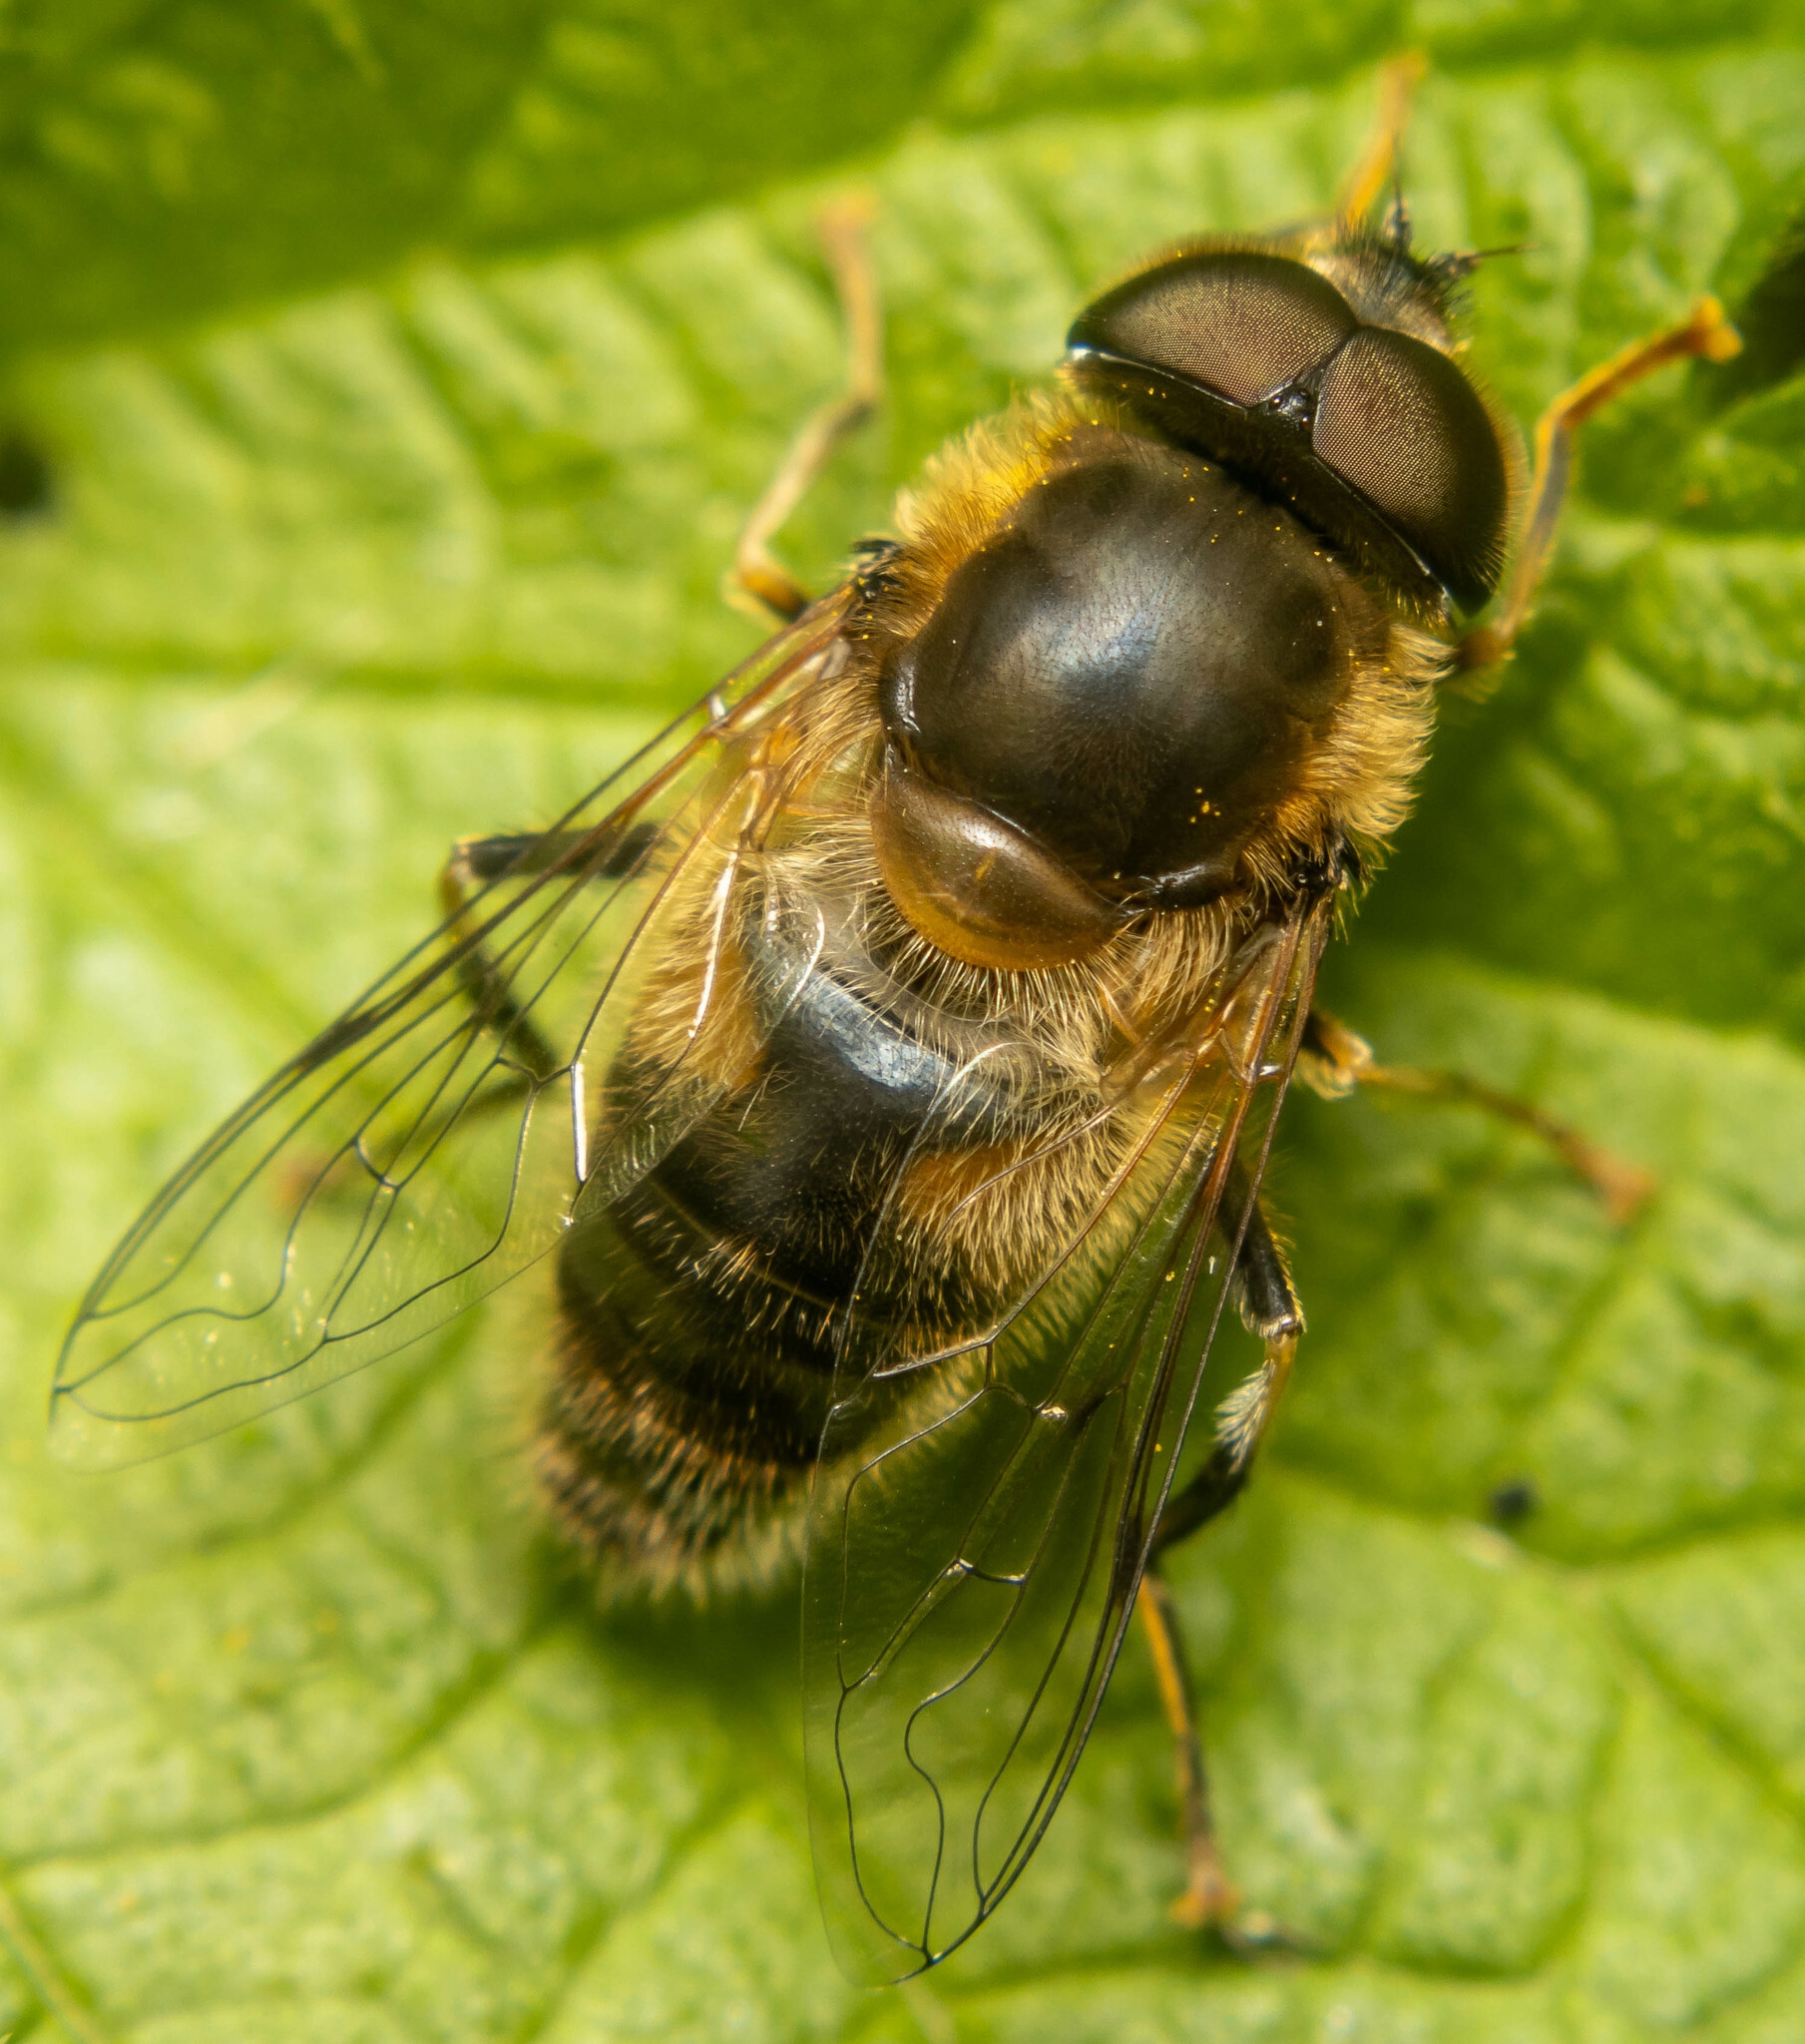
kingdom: Animalia
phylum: Arthropoda
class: Insecta
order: Diptera
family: Syrphidae
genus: Eristalis
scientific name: Eristalis pertinax
